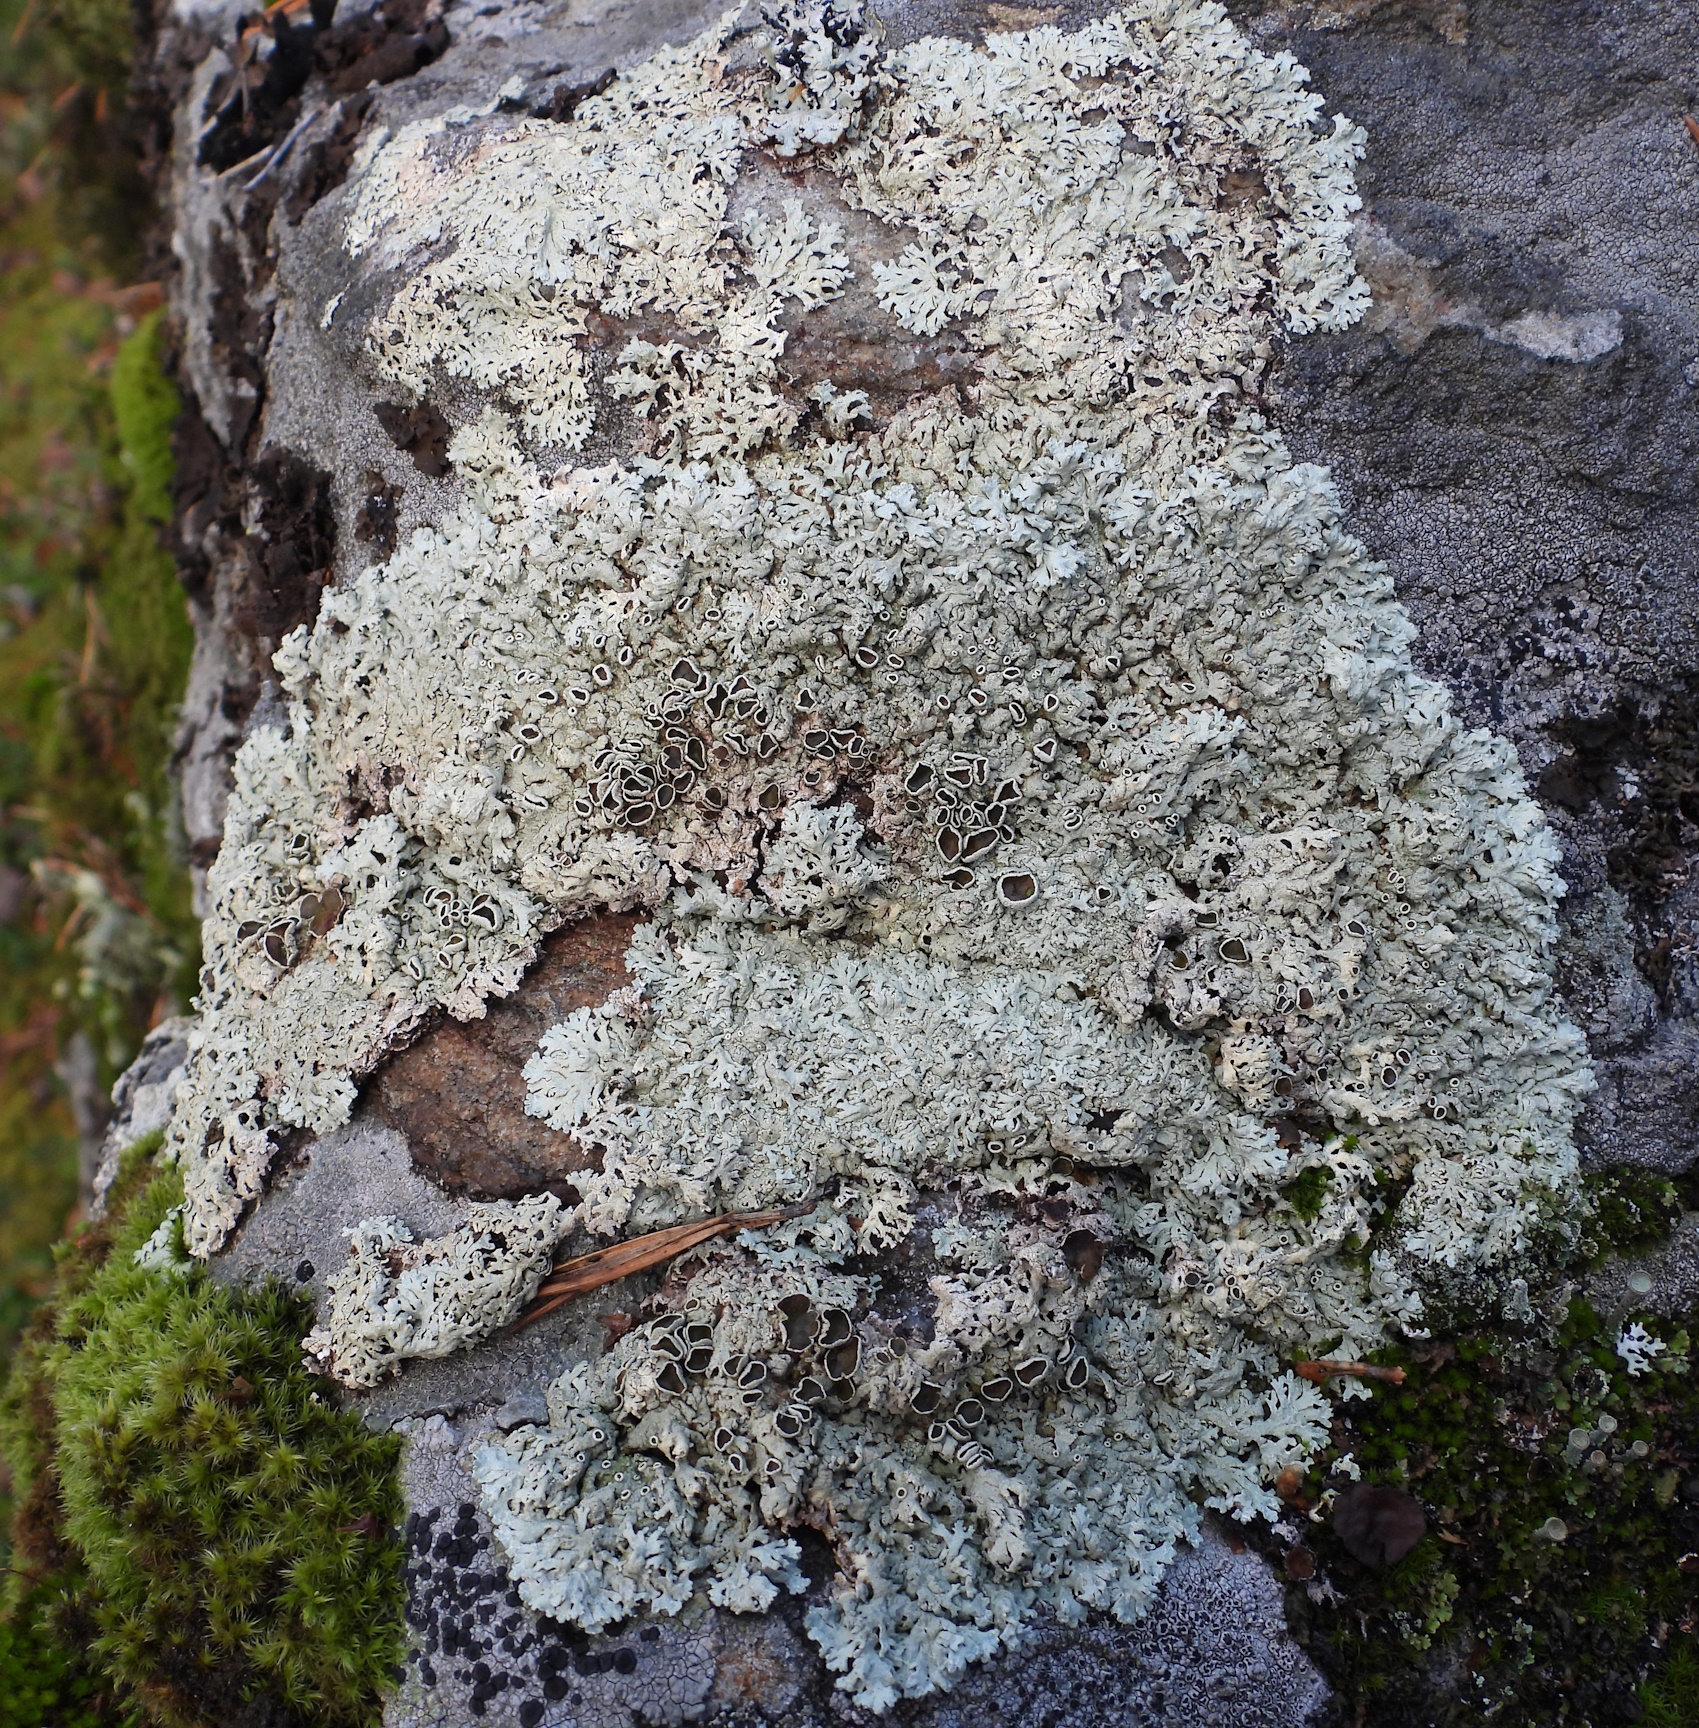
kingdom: Fungi
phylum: Ascomycota
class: Lecanoromycetes
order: Lecanorales
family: Parmeliaceae
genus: Arctoparmelia
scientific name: Arctoparmelia centrifuga
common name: Concentric ring lichen
